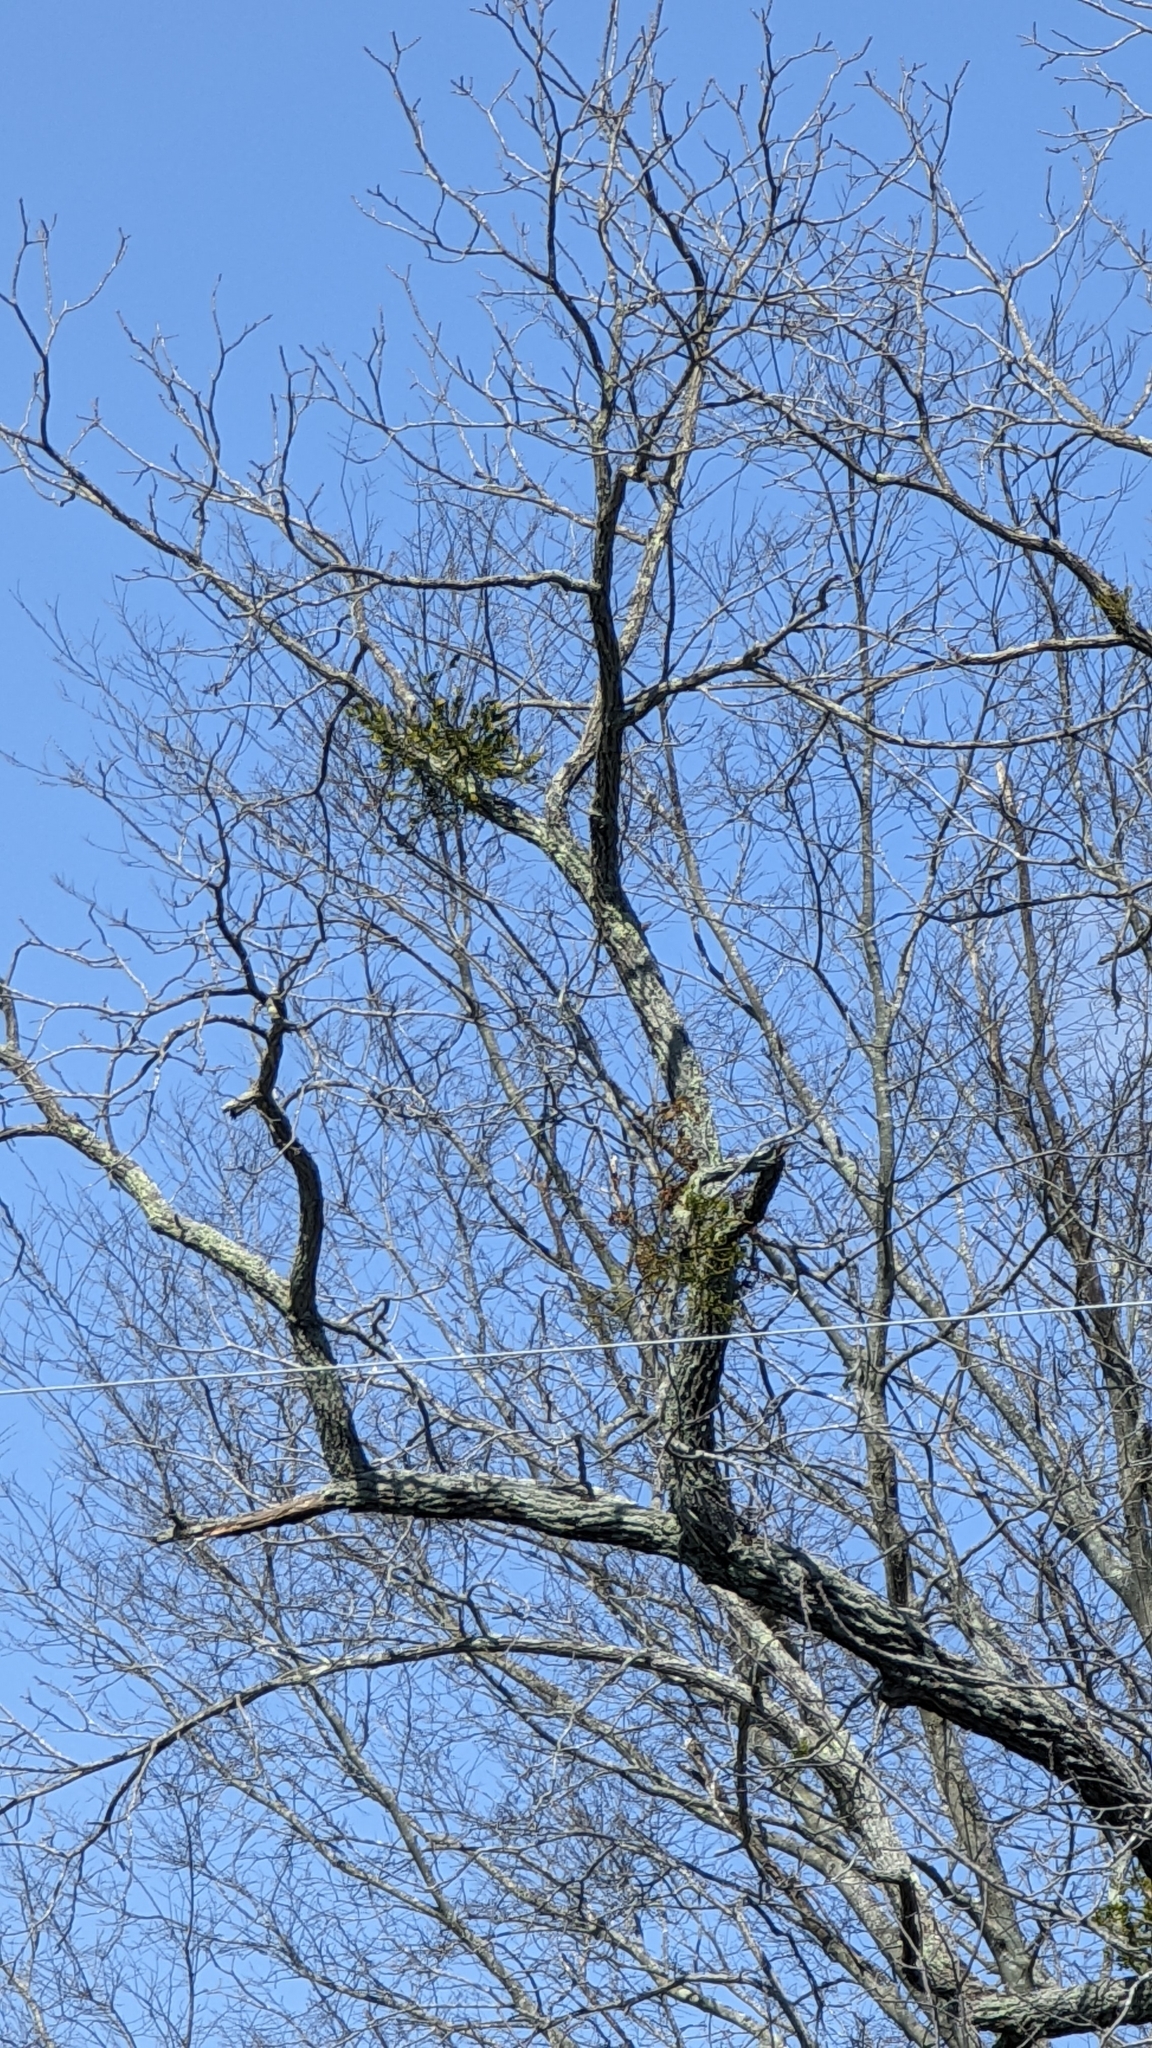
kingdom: Plantae
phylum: Tracheophyta
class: Magnoliopsida
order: Santalales
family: Viscaceae
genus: Phoradendron
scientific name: Phoradendron leucarpum
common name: Pacific mistletoe
